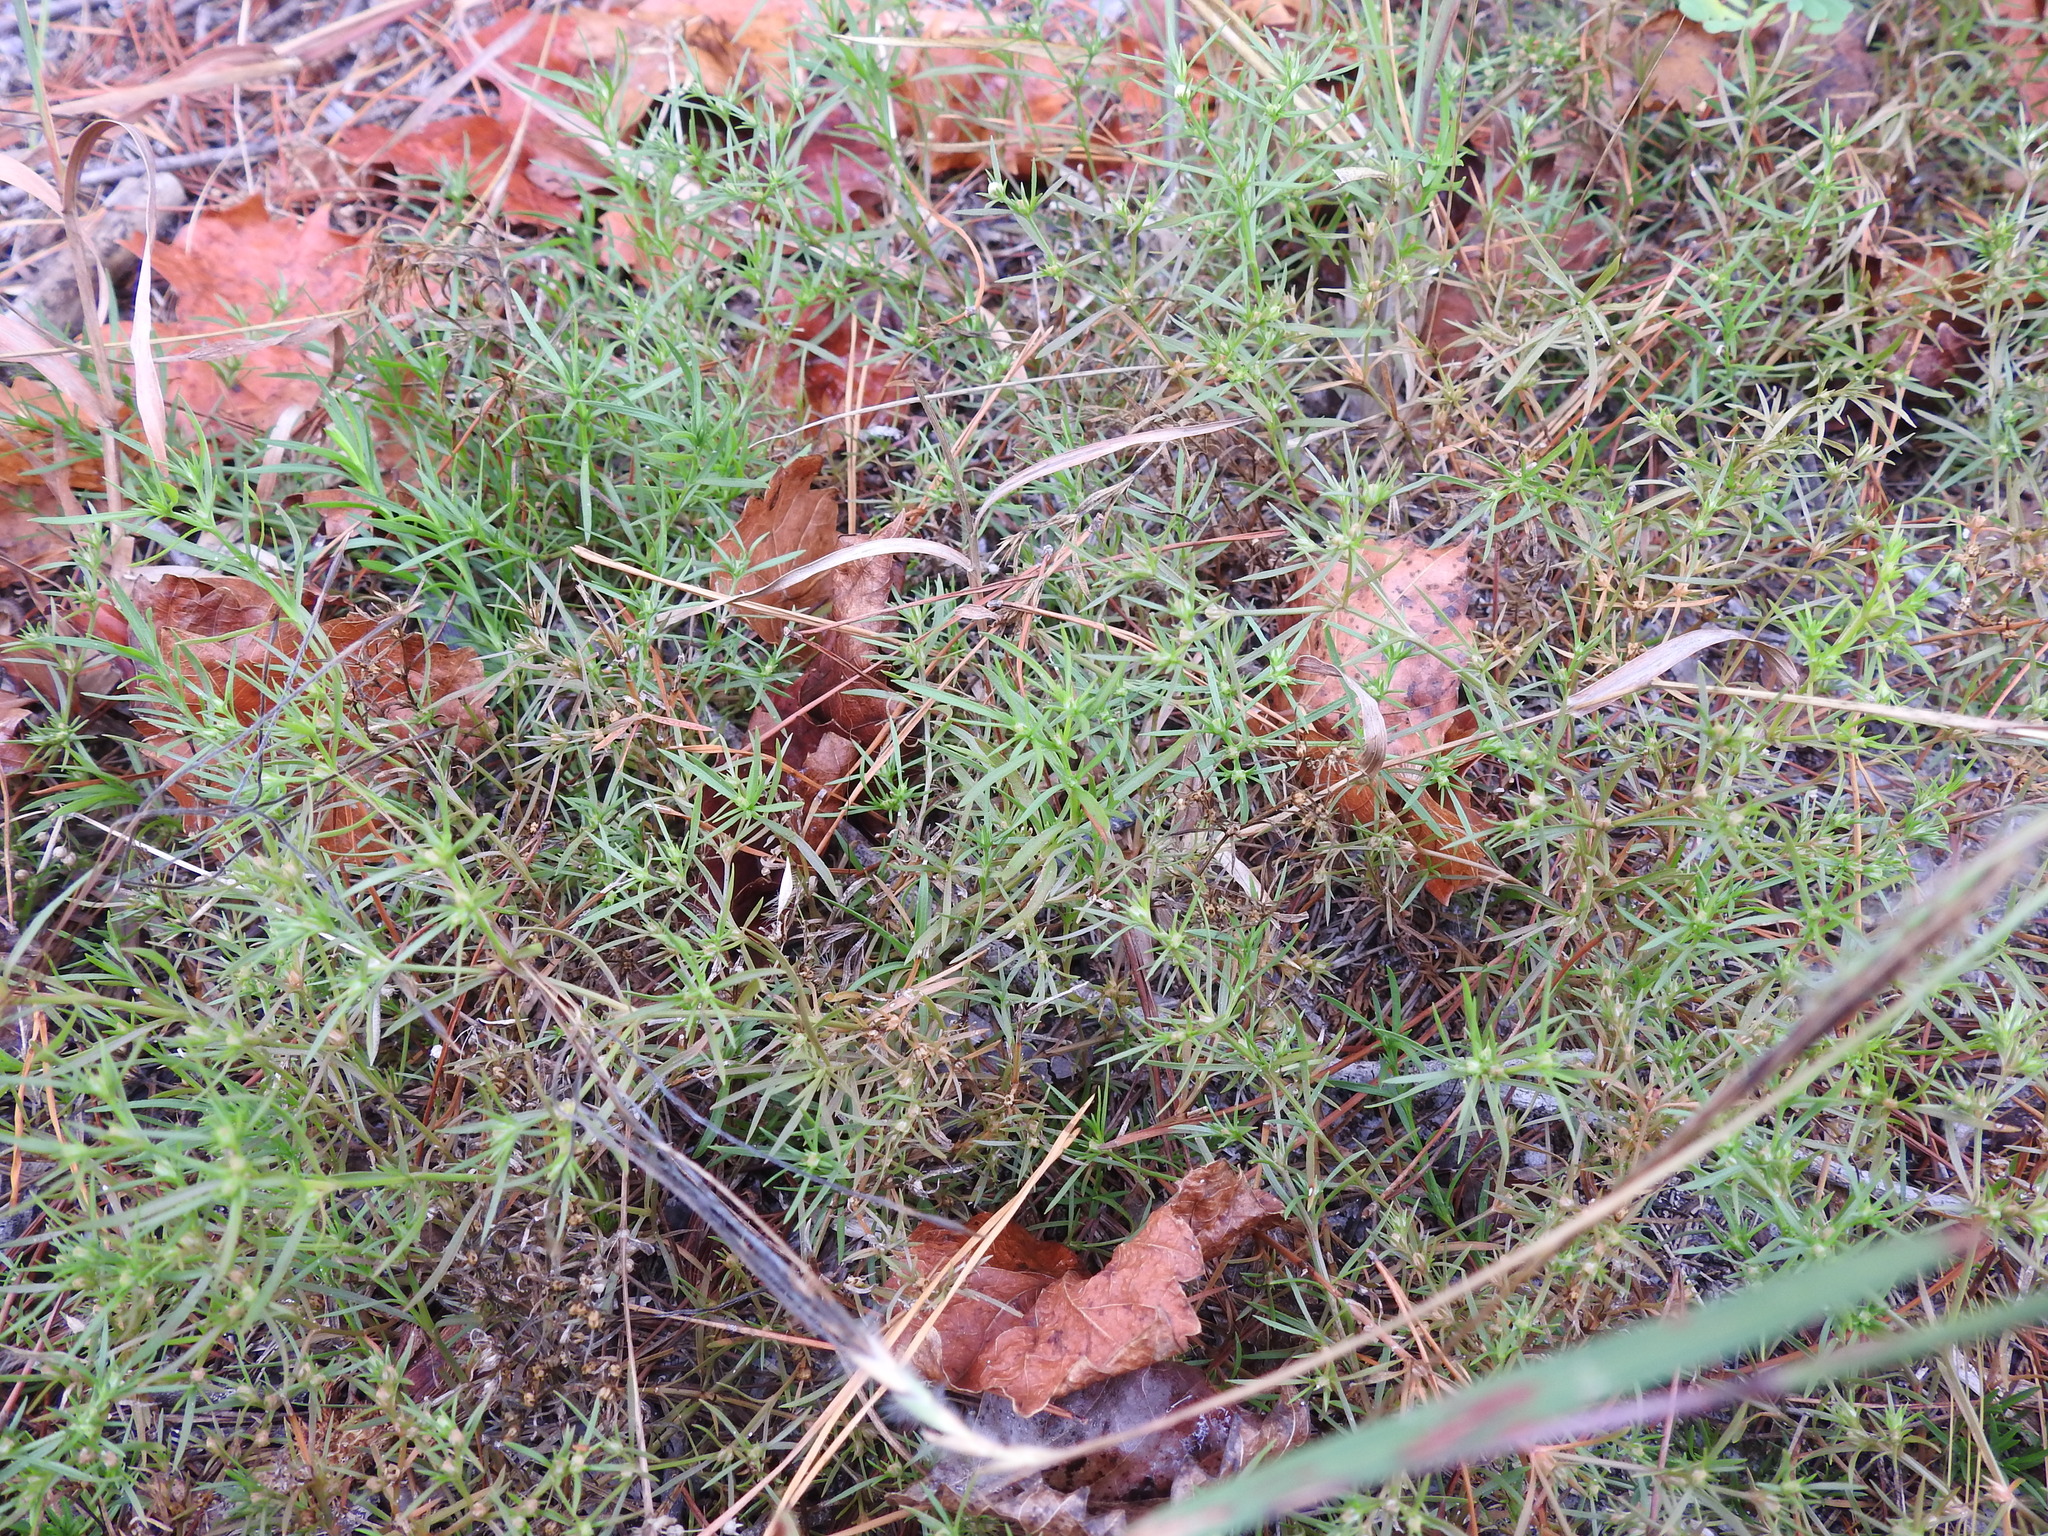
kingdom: Plantae
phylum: Tracheophyta
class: Magnoliopsida
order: Lamiales
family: Tetrachondraceae
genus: Polypremum
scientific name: Polypremum procumbens
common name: Juniper-leaf
